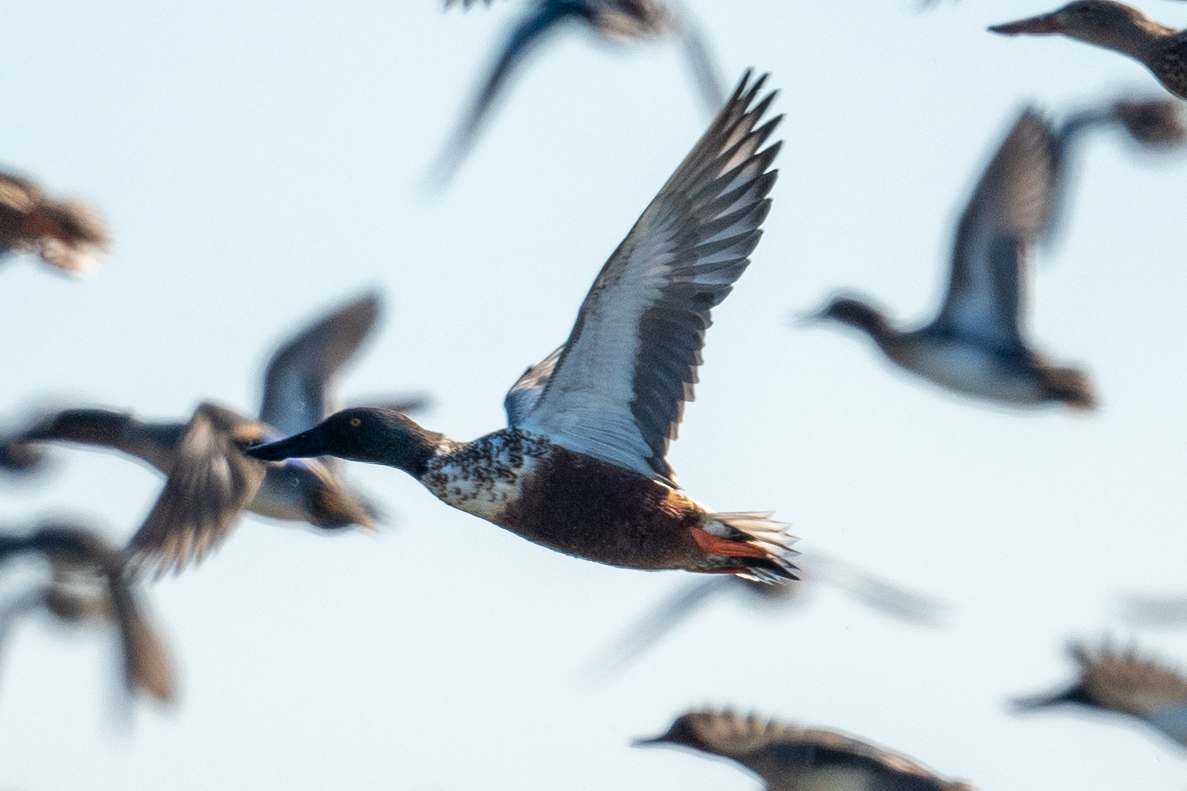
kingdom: Animalia
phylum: Chordata
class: Aves
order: Anseriformes
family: Anatidae
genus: Spatula
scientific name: Spatula clypeata
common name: Northern shoveler
